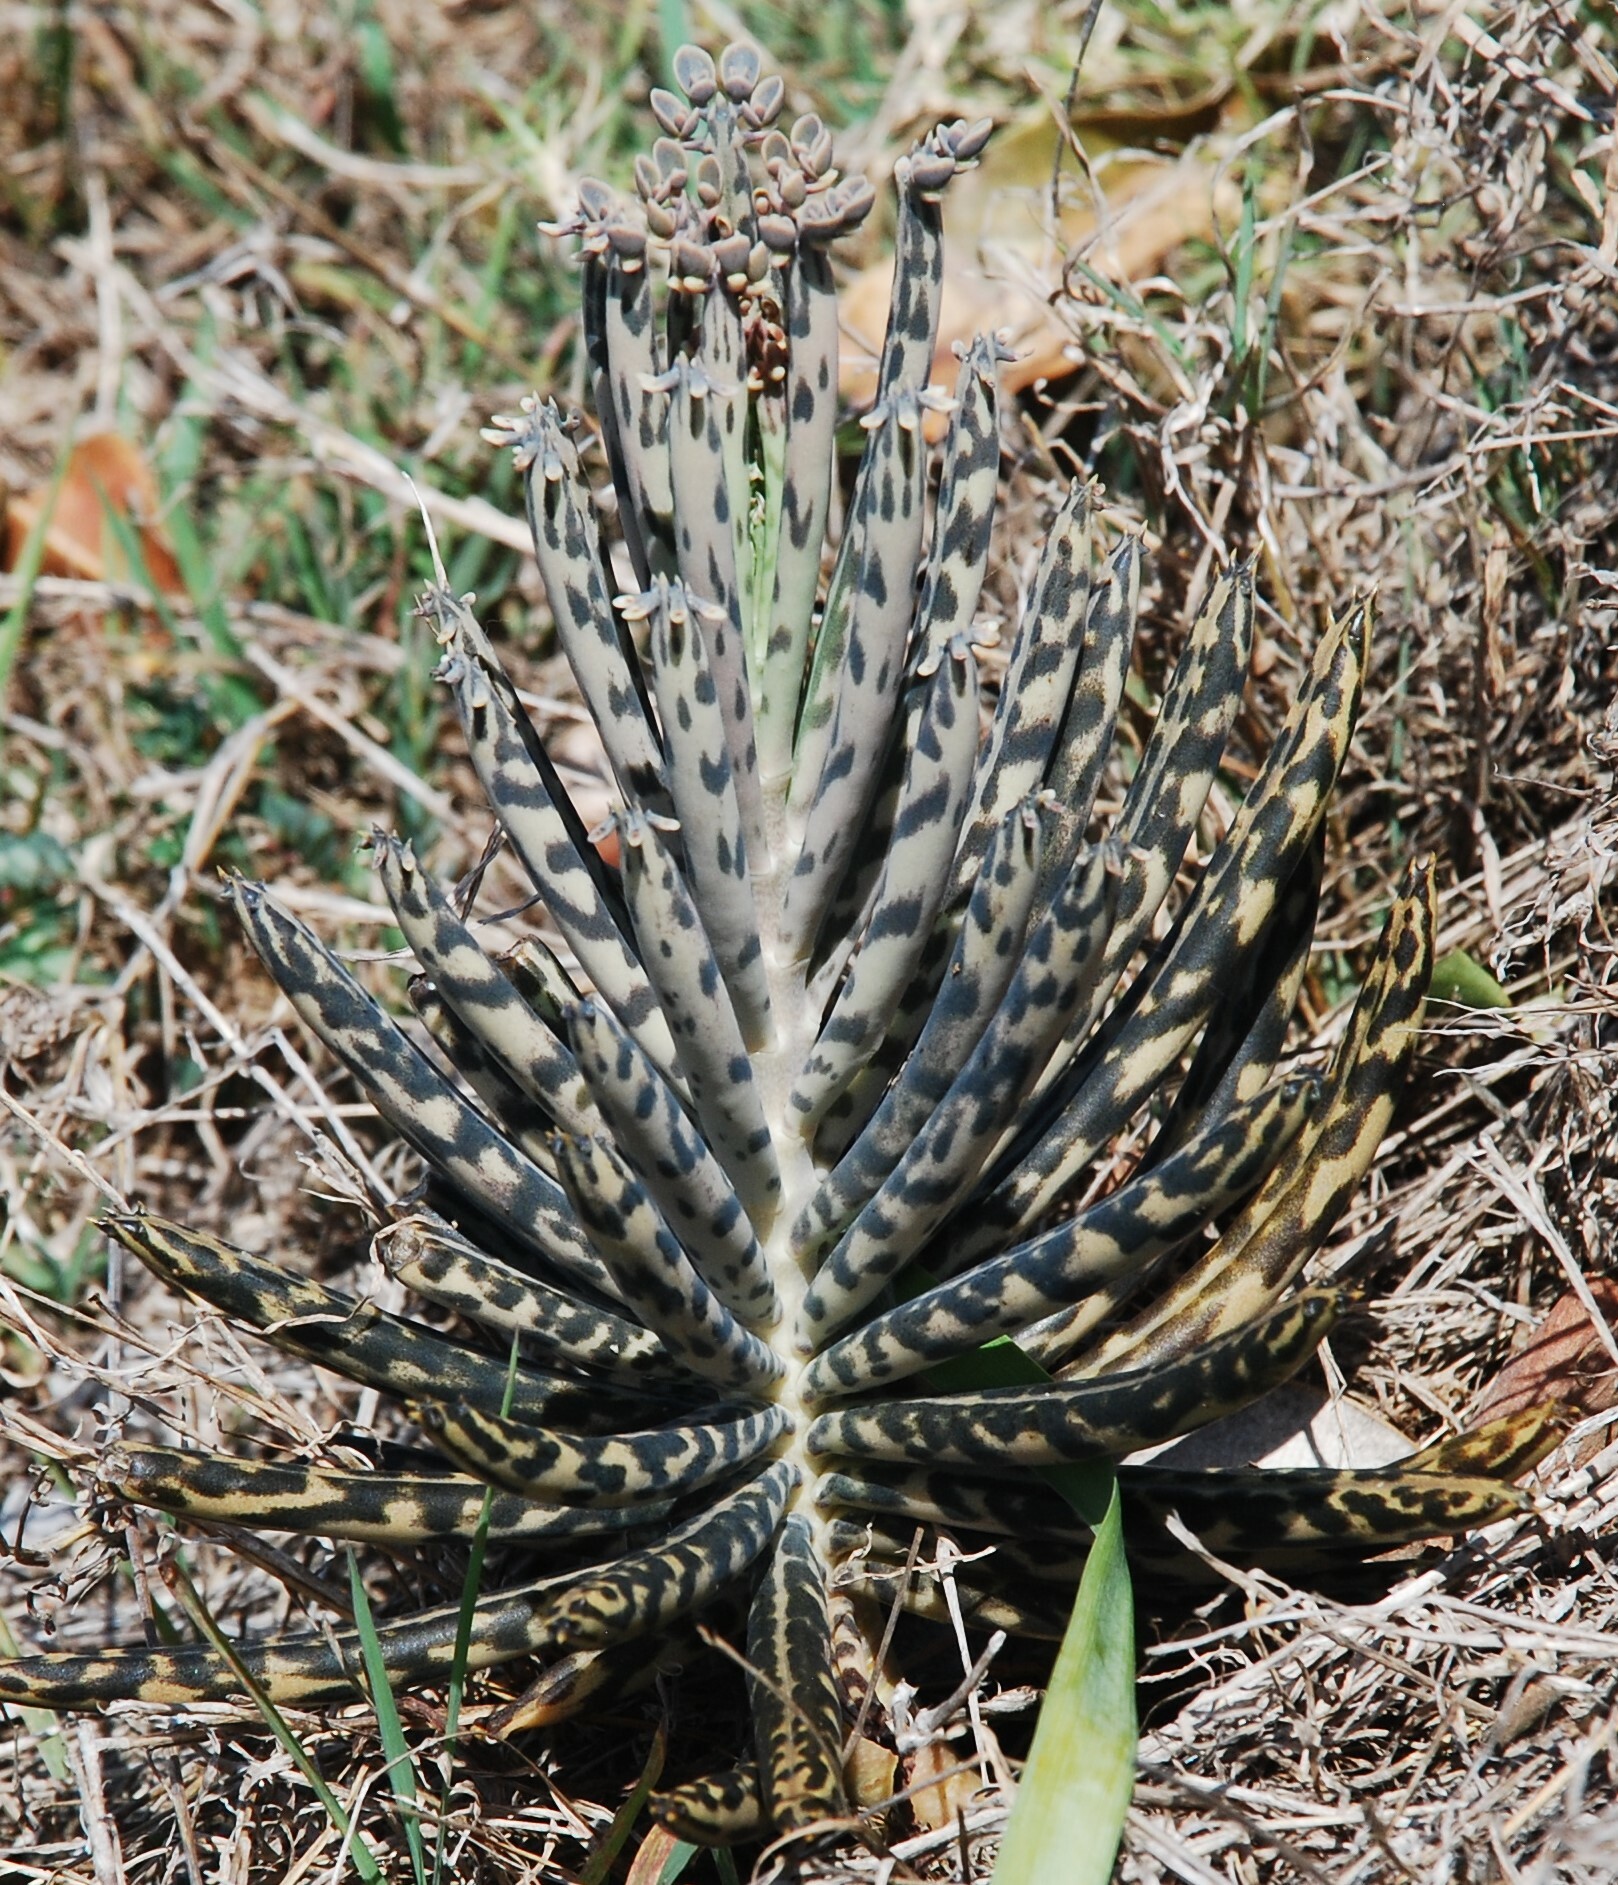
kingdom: Plantae
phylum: Tracheophyta
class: Magnoliopsida
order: Saxifragales
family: Crassulaceae
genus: Kalanchoe
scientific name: Kalanchoe delagoensis
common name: Chandelier plant
